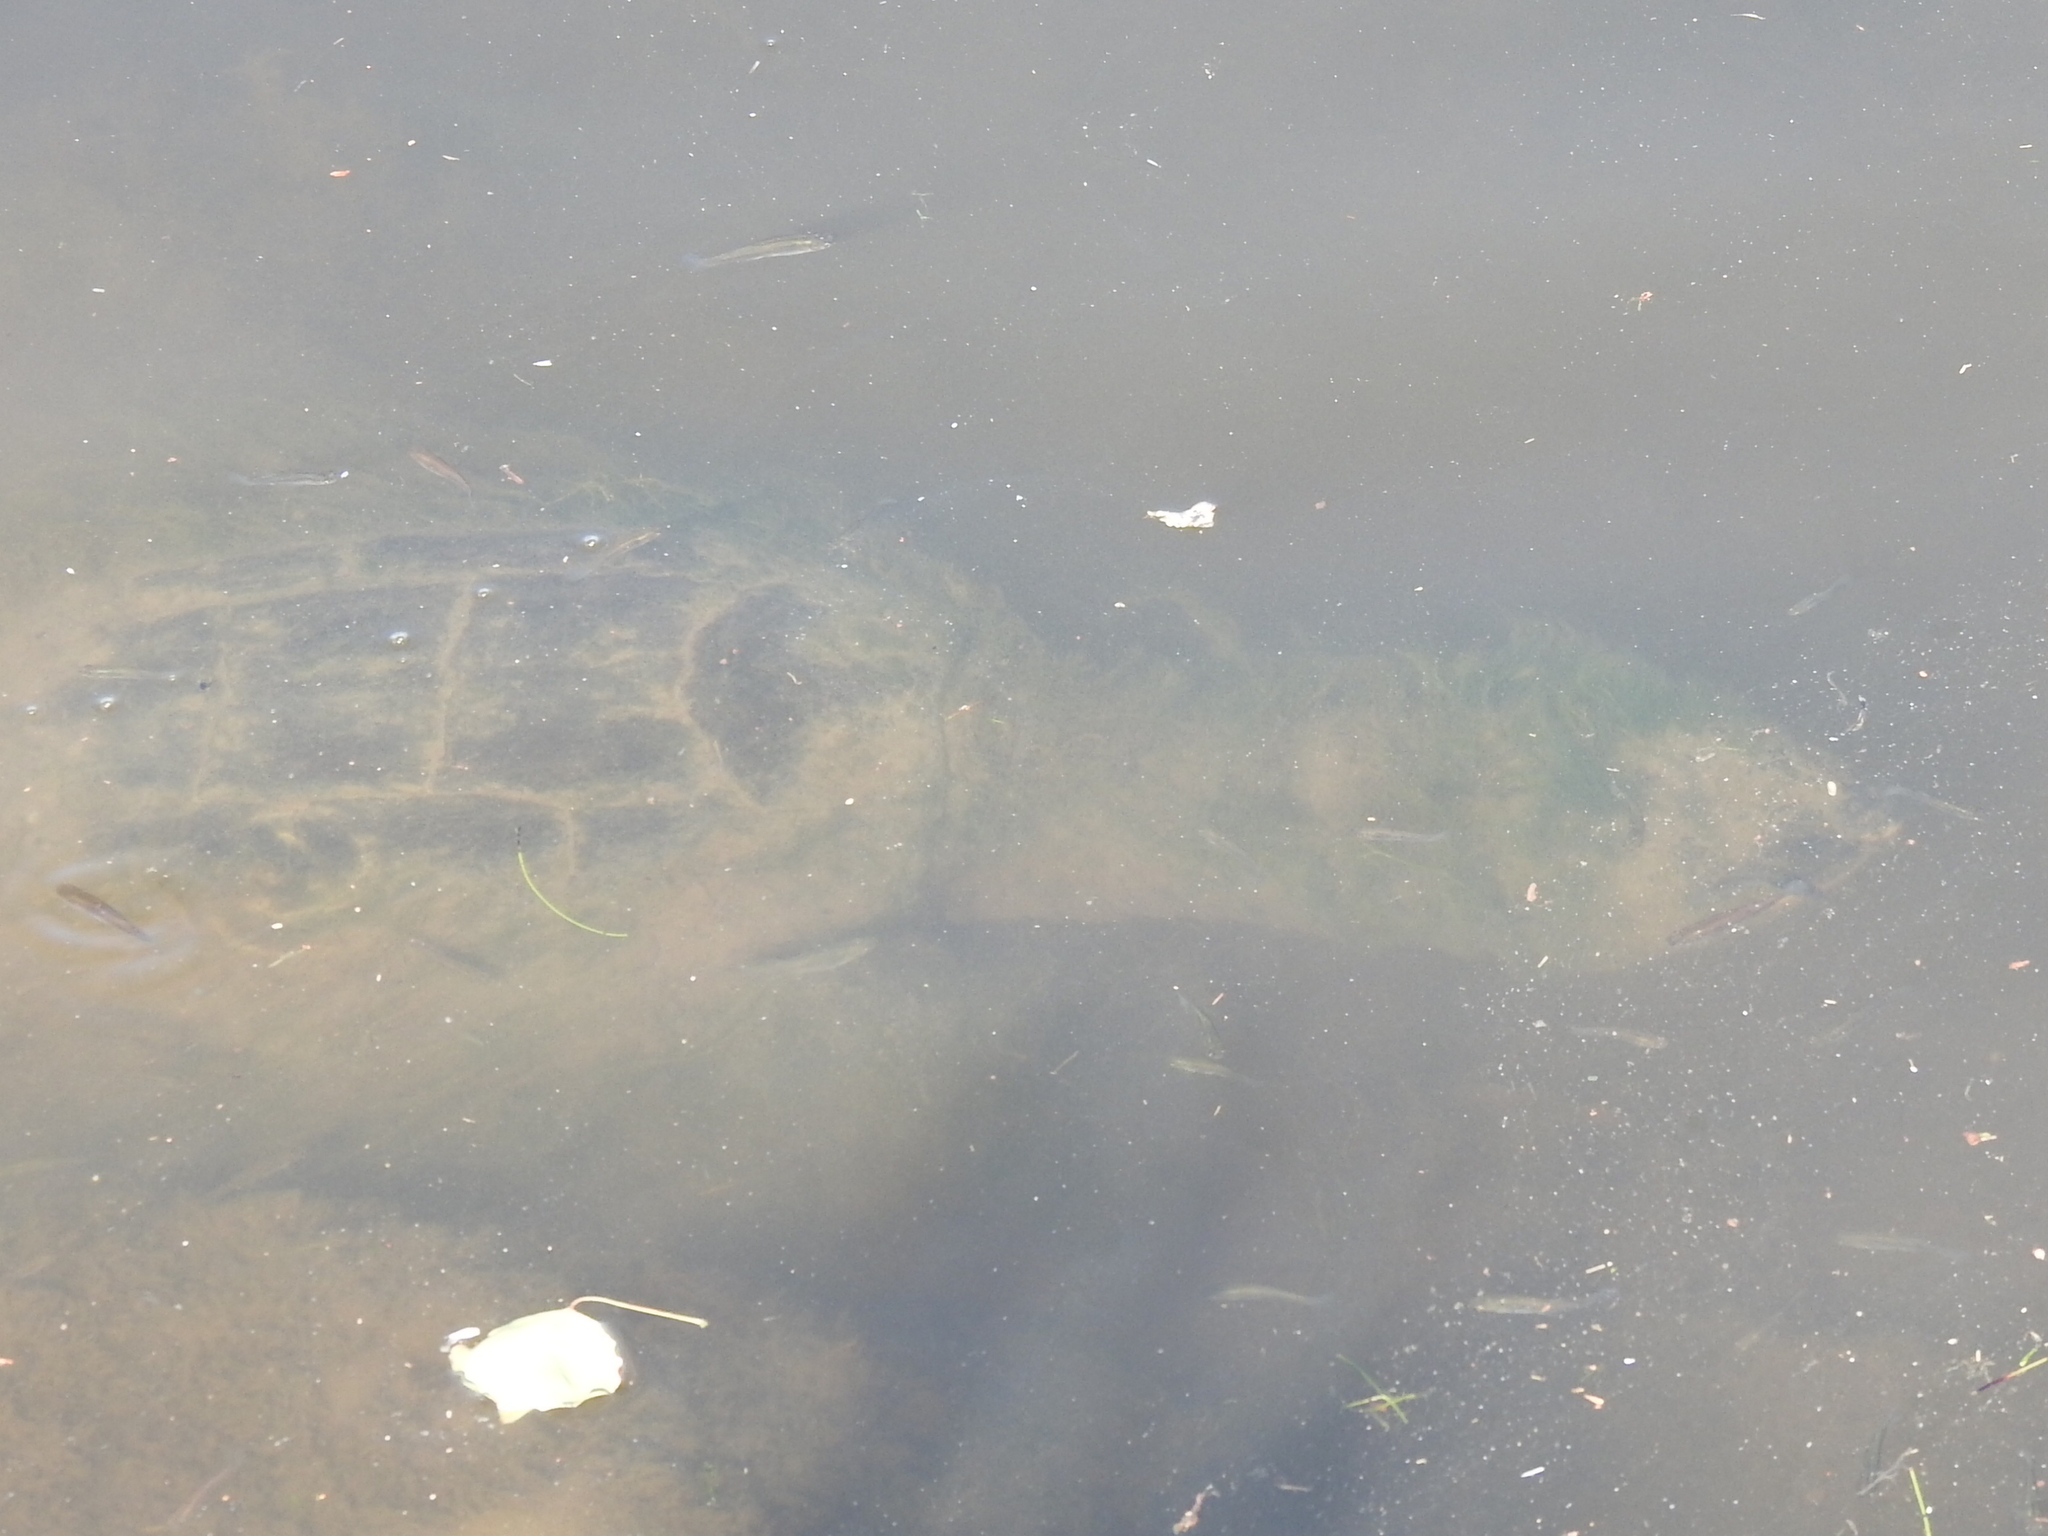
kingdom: Animalia
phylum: Chordata
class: Testudines
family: Chelydridae
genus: Chelydra
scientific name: Chelydra serpentina
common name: Common snapping turtle
